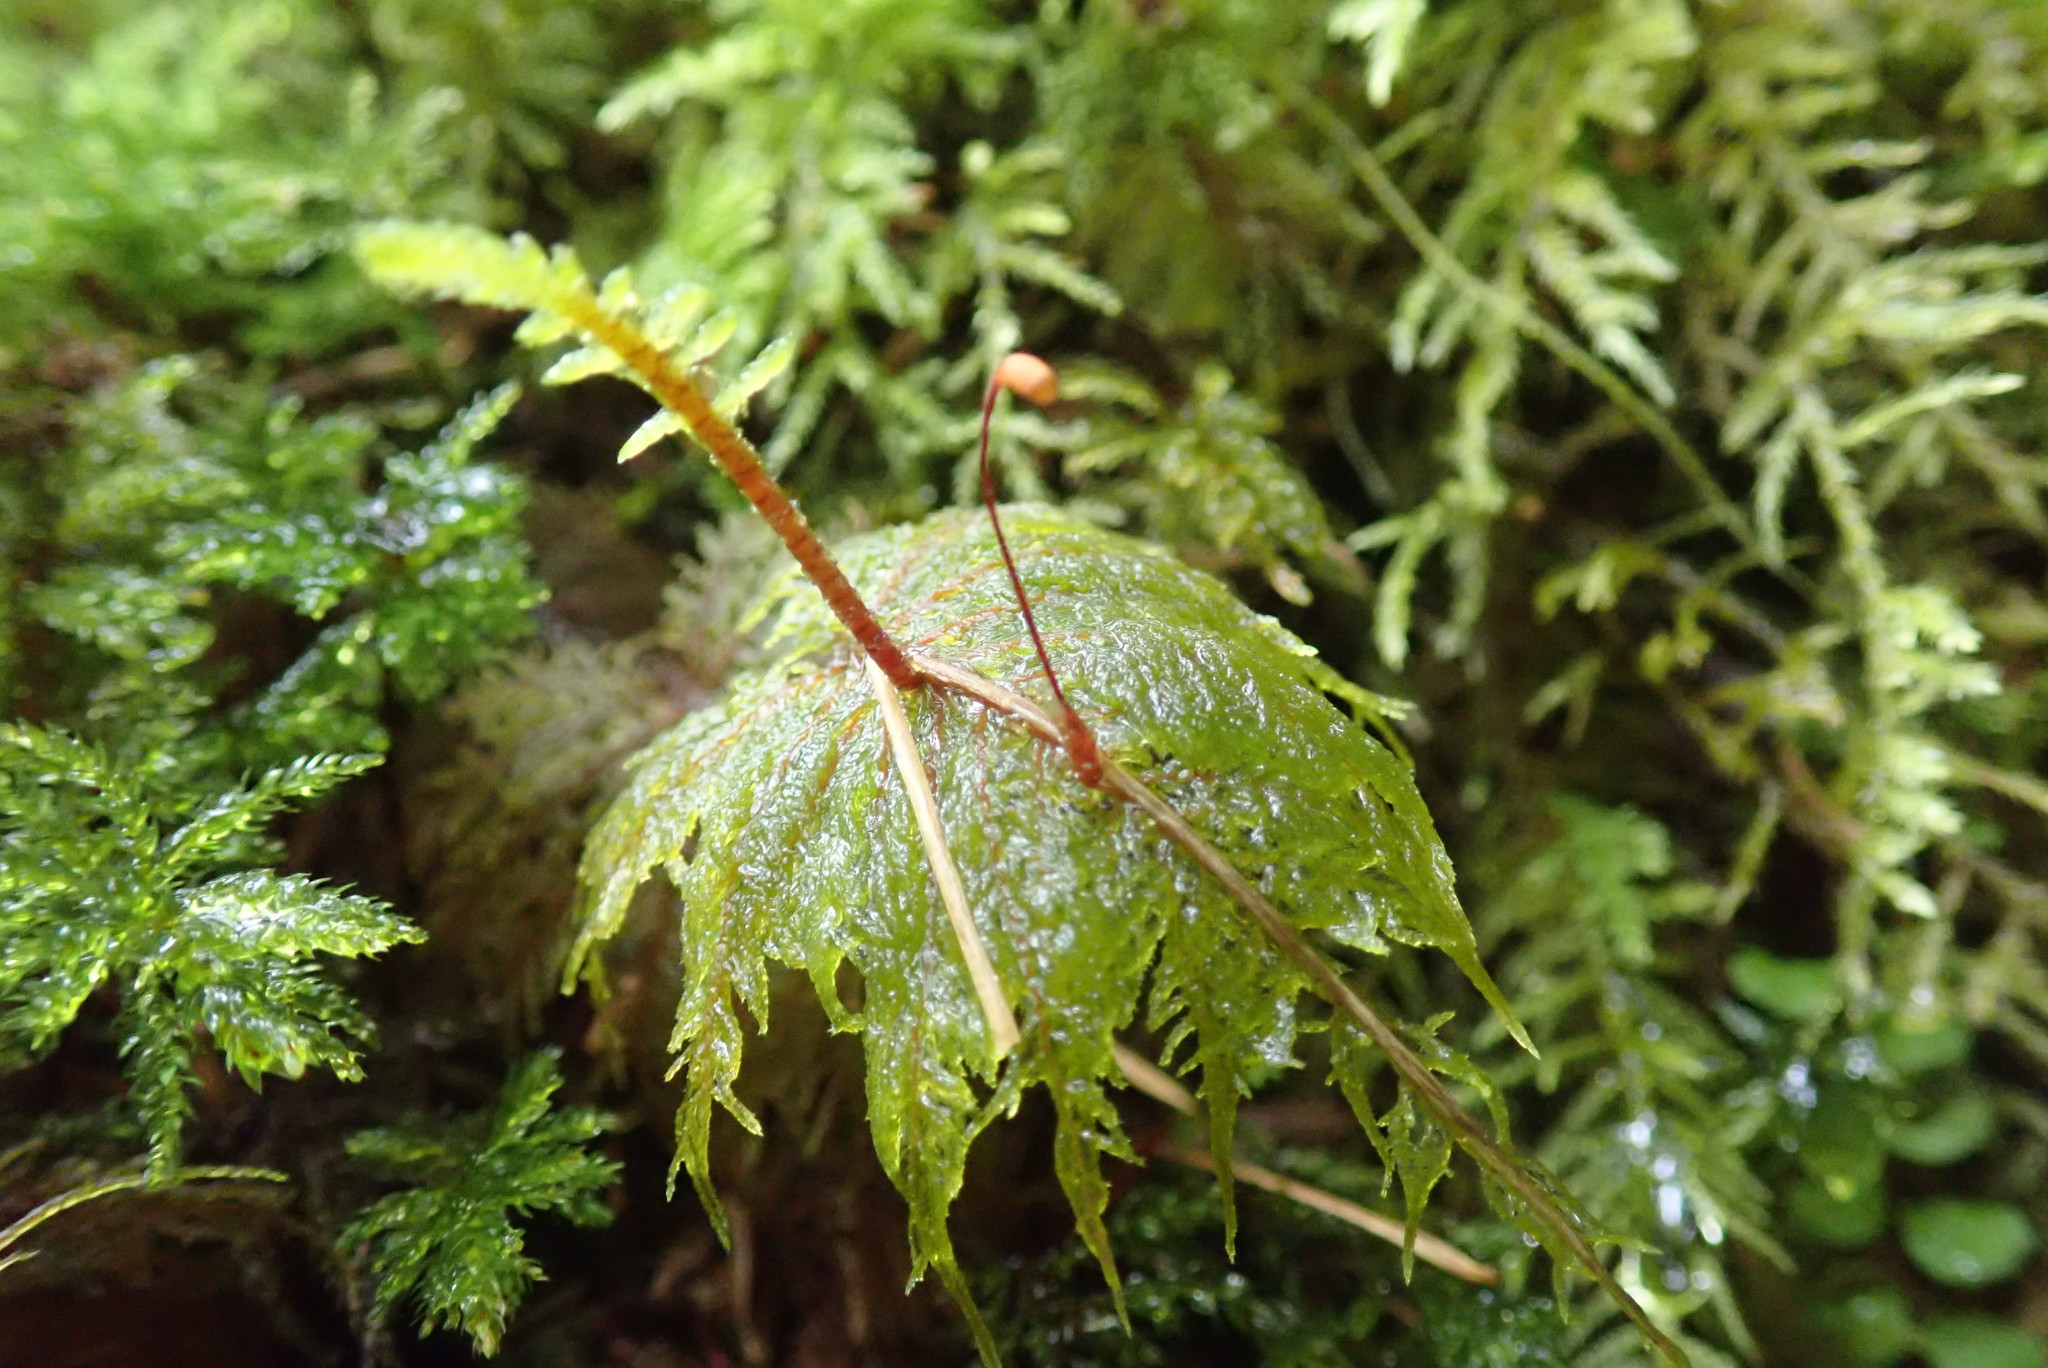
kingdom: Plantae
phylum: Bryophyta
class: Bryopsida
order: Hypnales
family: Hylocomiaceae
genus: Hylocomium
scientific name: Hylocomium splendens
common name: Stairstep moss
